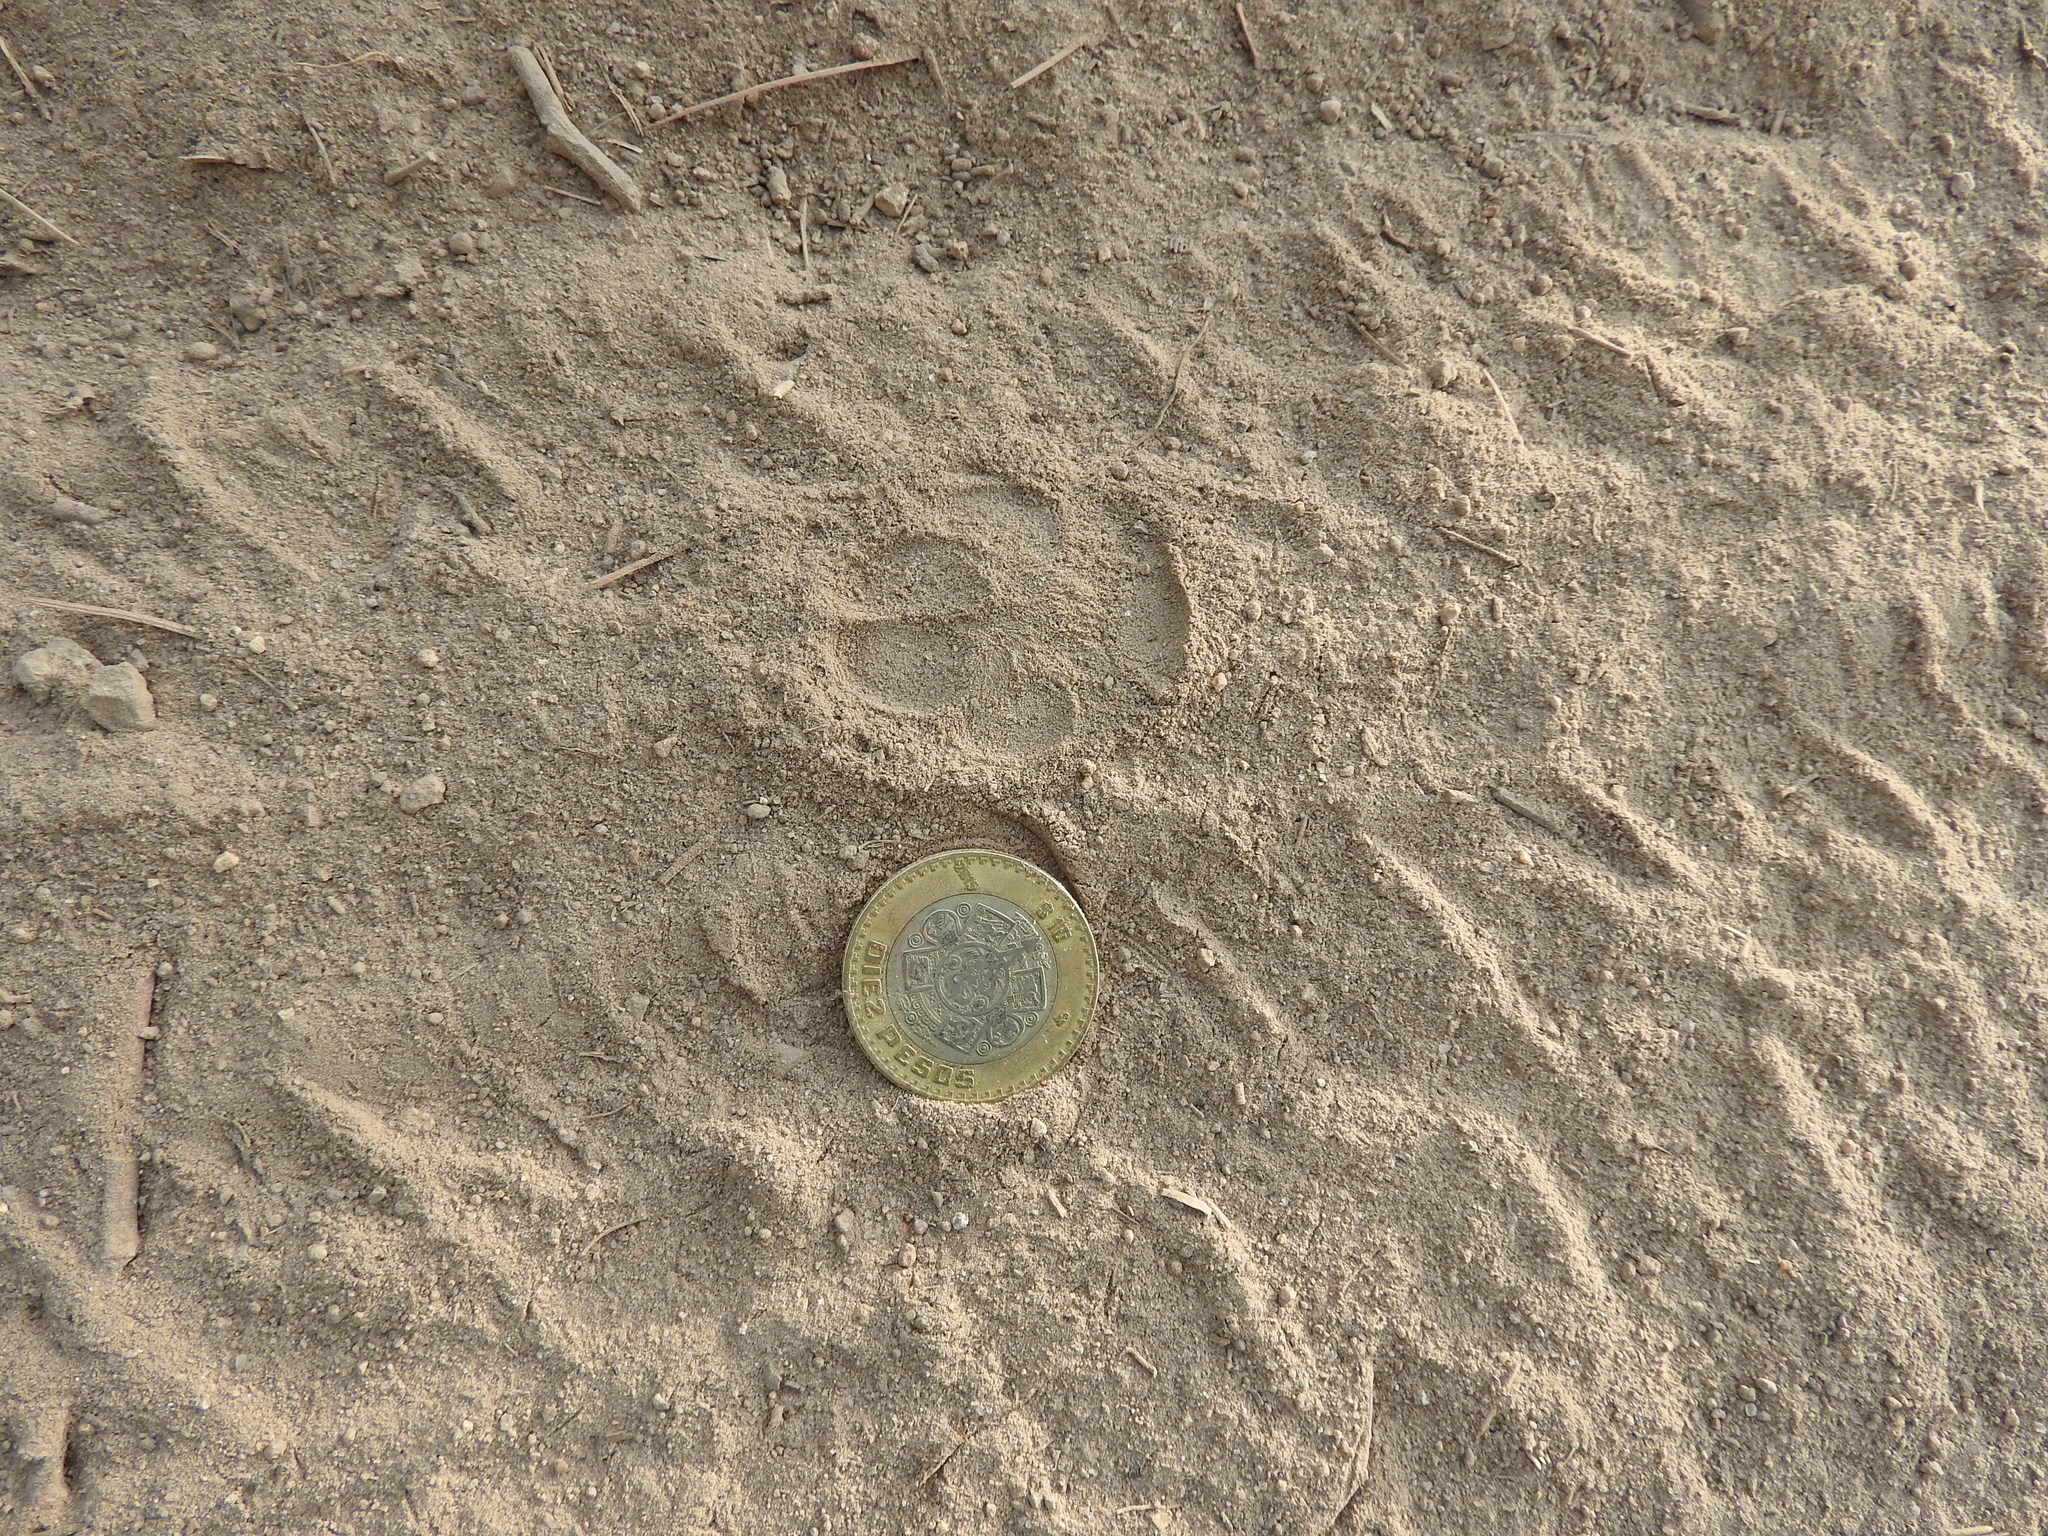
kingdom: Animalia
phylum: Chordata
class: Mammalia
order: Carnivora
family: Canidae
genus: Urocyon
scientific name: Urocyon cinereoargenteus
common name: Gray fox
